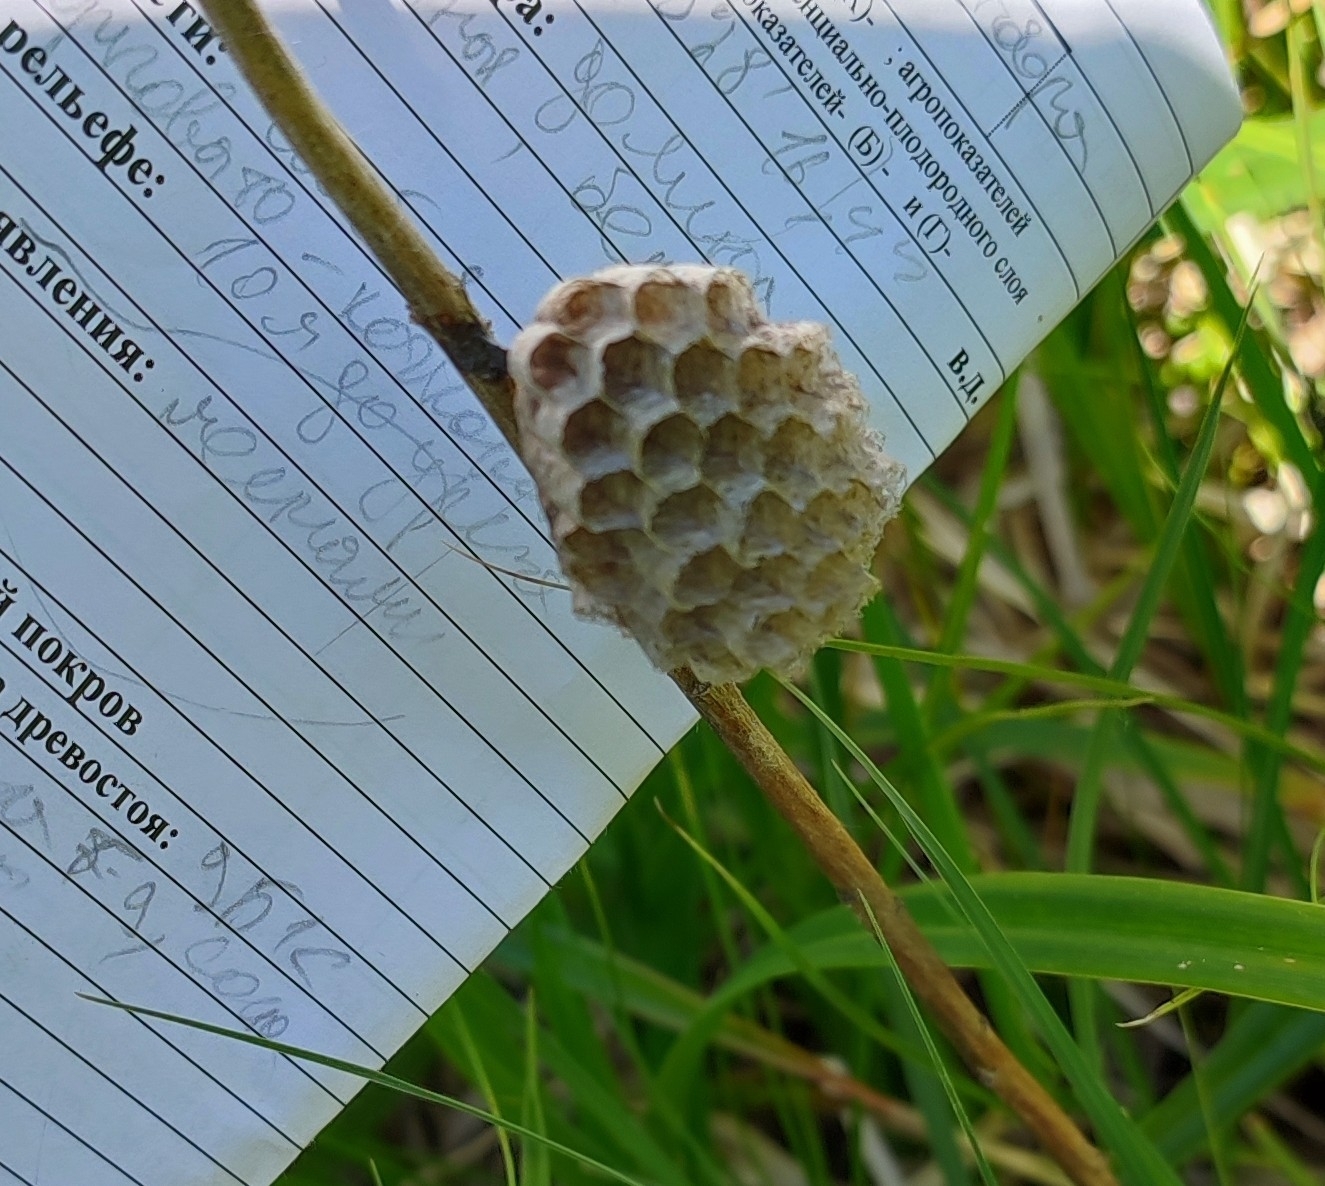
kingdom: Animalia
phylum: Arthropoda
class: Insecta
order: Hymenoptera
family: Eumenidae
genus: Polistes
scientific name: Polistes
